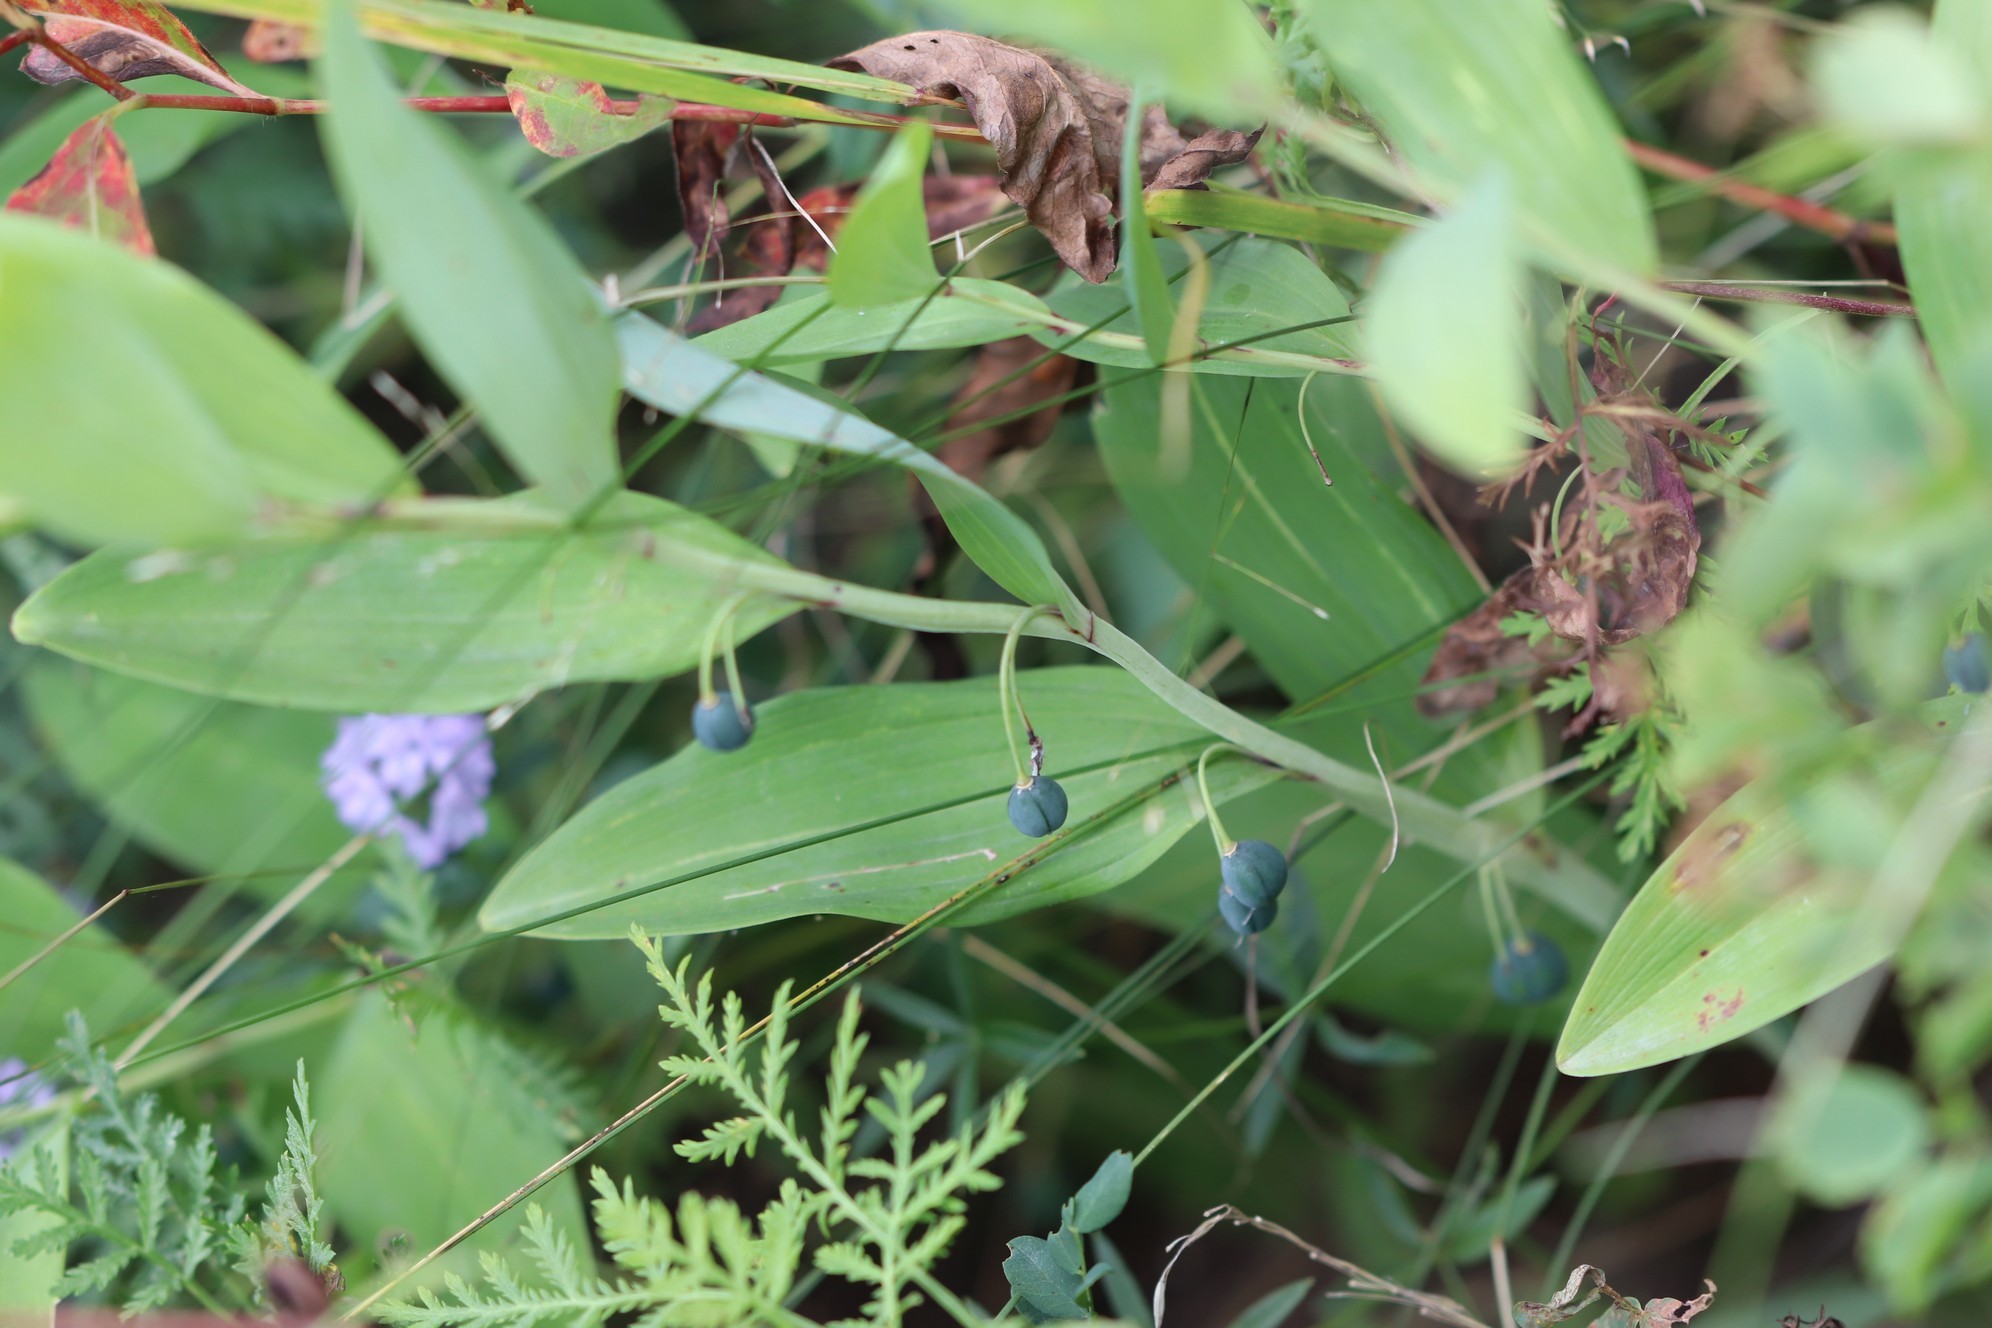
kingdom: Plantae
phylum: Tracheophyta
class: Liliopsida
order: Asparagales
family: Asparagaceae
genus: Polygonatum
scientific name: Polygonatum odoratum
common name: Angular solomon's-seal
